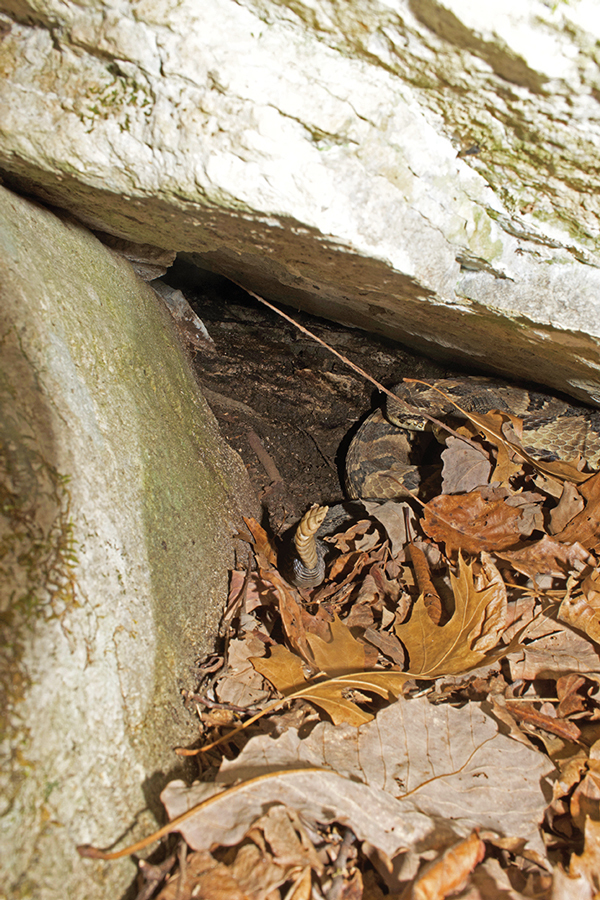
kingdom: Animalia
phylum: Chordata
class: Squamata
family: Viperidae
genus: Crotalus
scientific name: Crotalus horridus
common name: Timber rattlesnake
